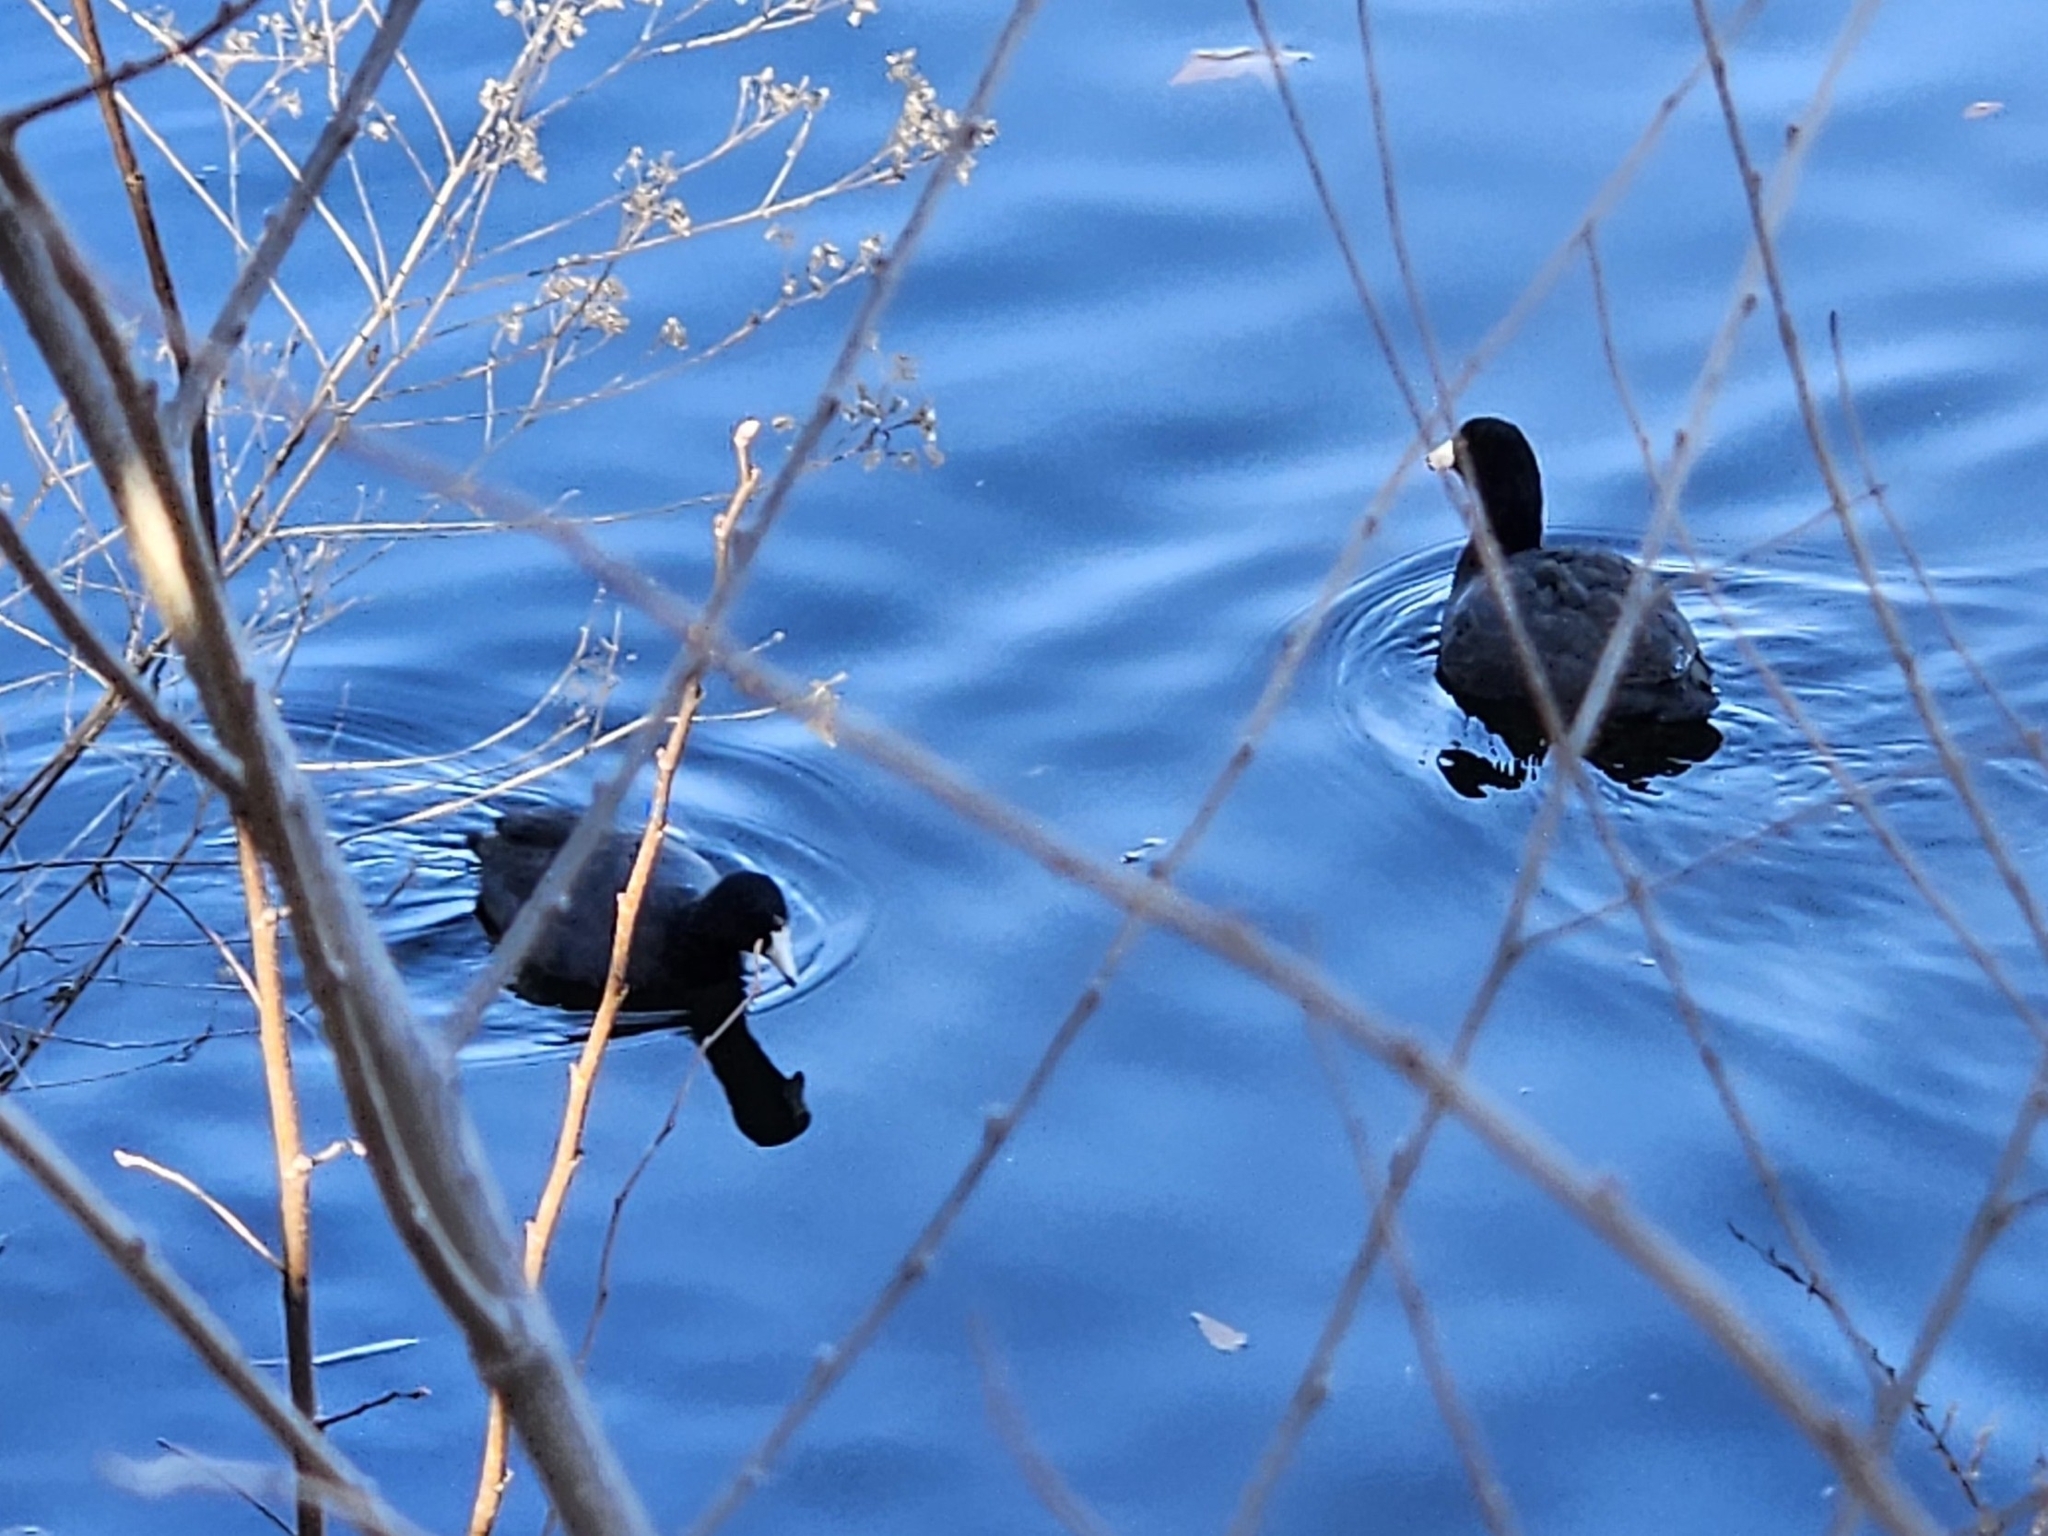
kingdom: Animalia
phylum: Chordata
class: Aves
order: Gruiformes
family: Rallidae
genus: Fulica
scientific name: Fulica americana
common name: American coot
